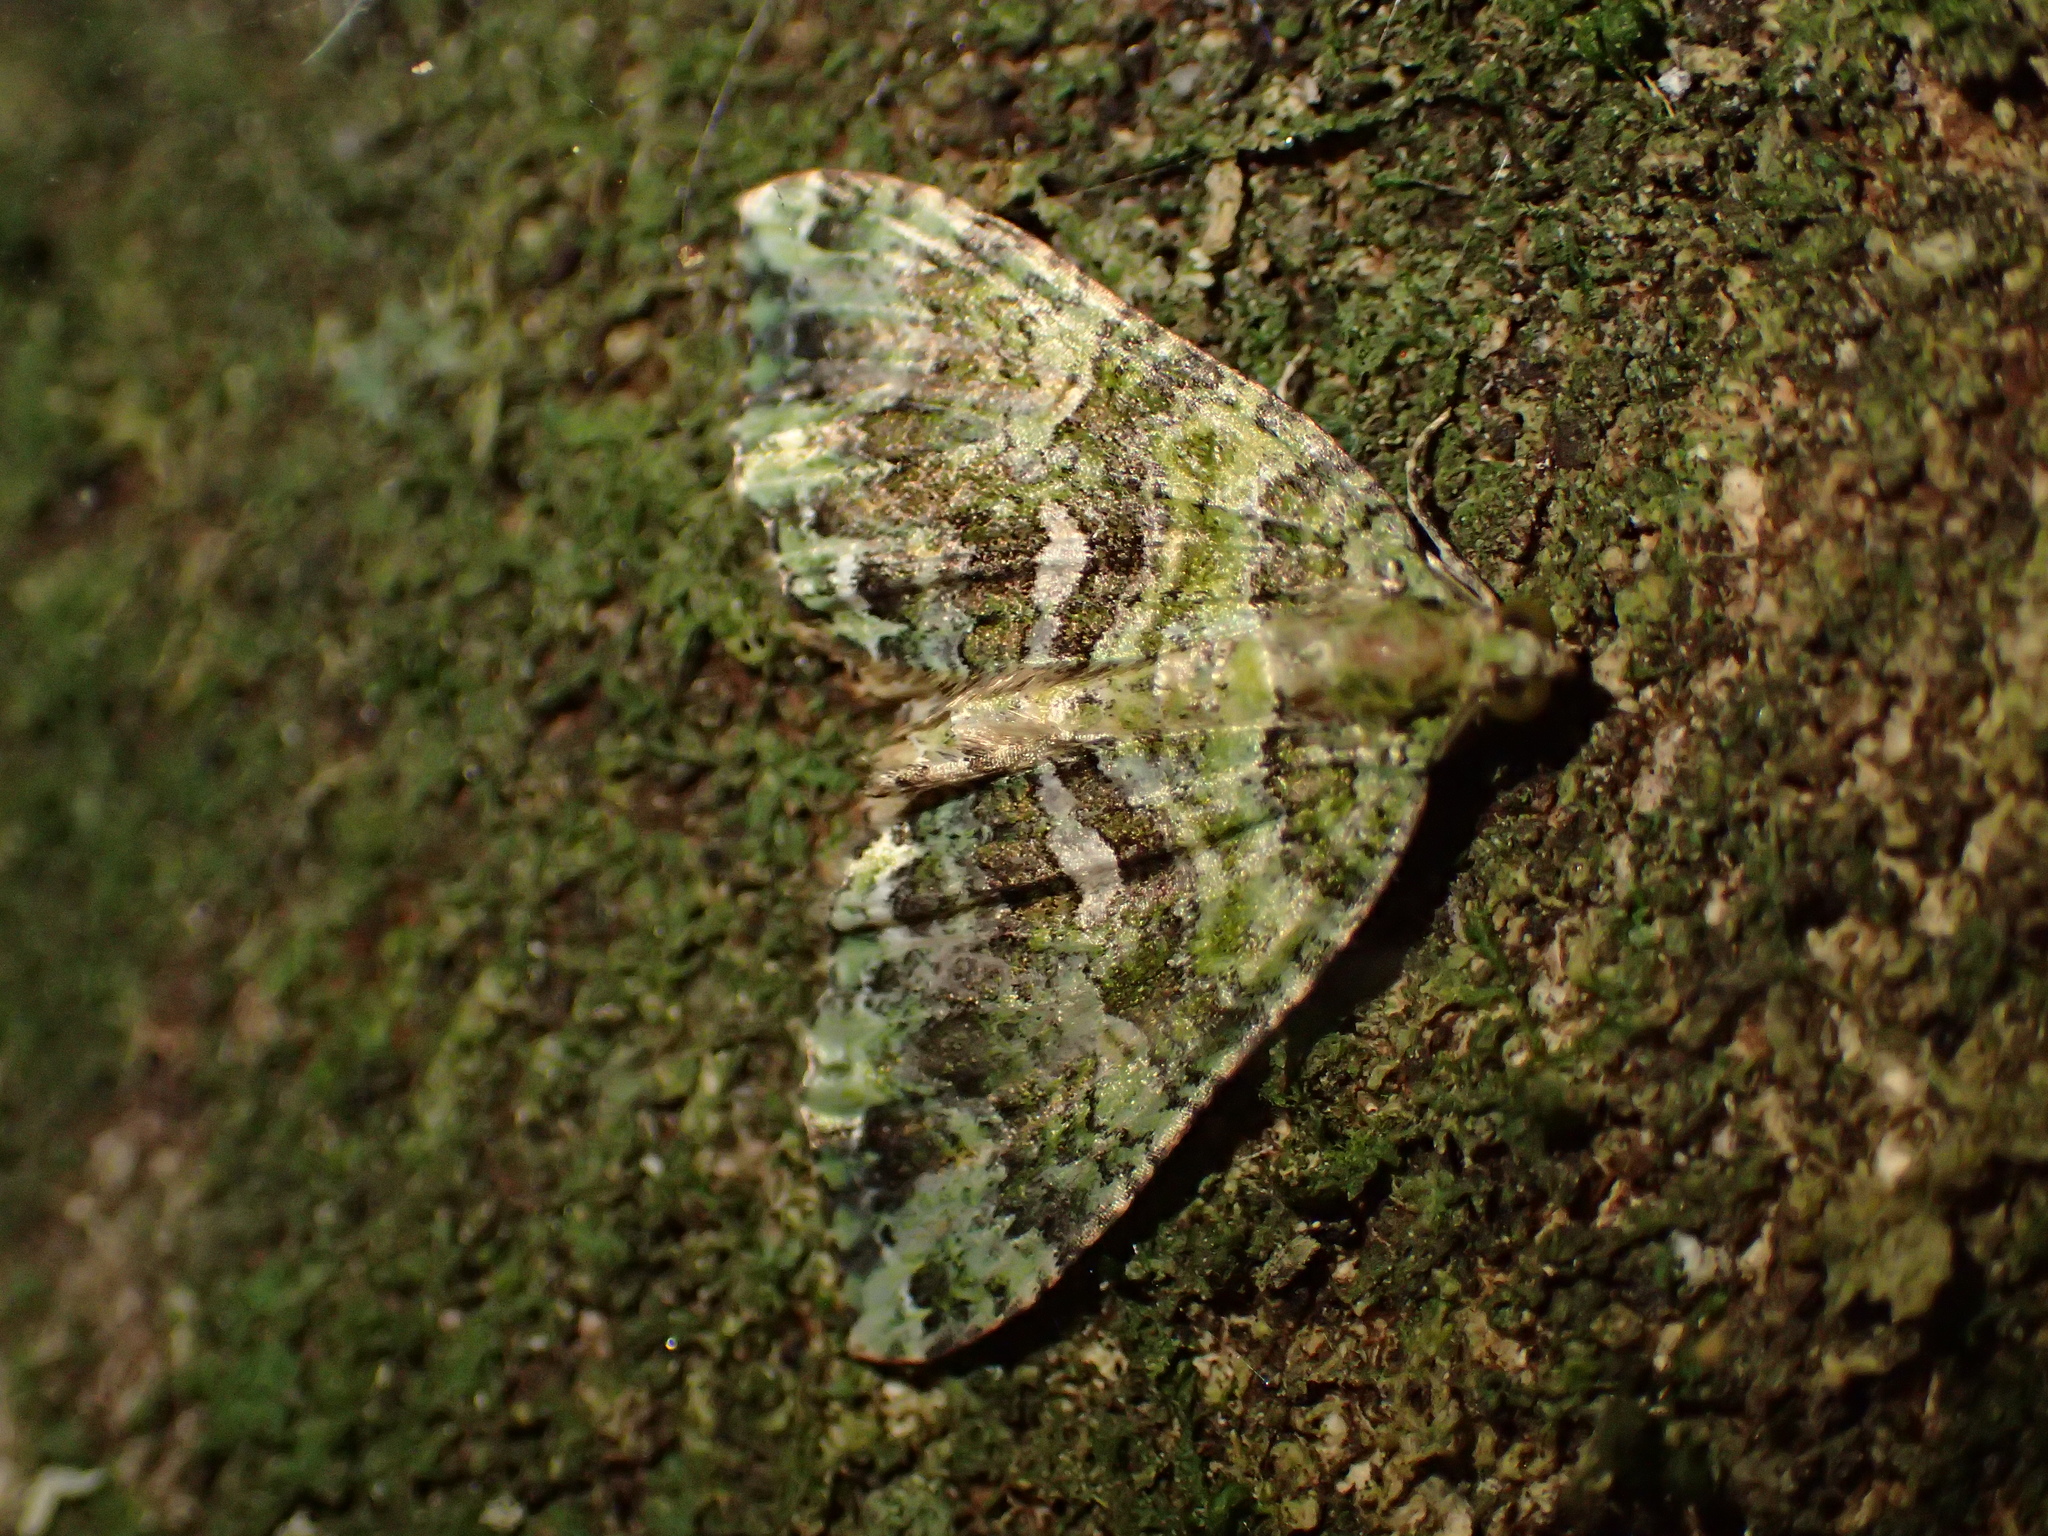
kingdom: Animalia
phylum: Arthropoda
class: Insecta
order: Lepidoptera
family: Geometridae
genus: Austrocidaria
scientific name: Austrocidaria similata
